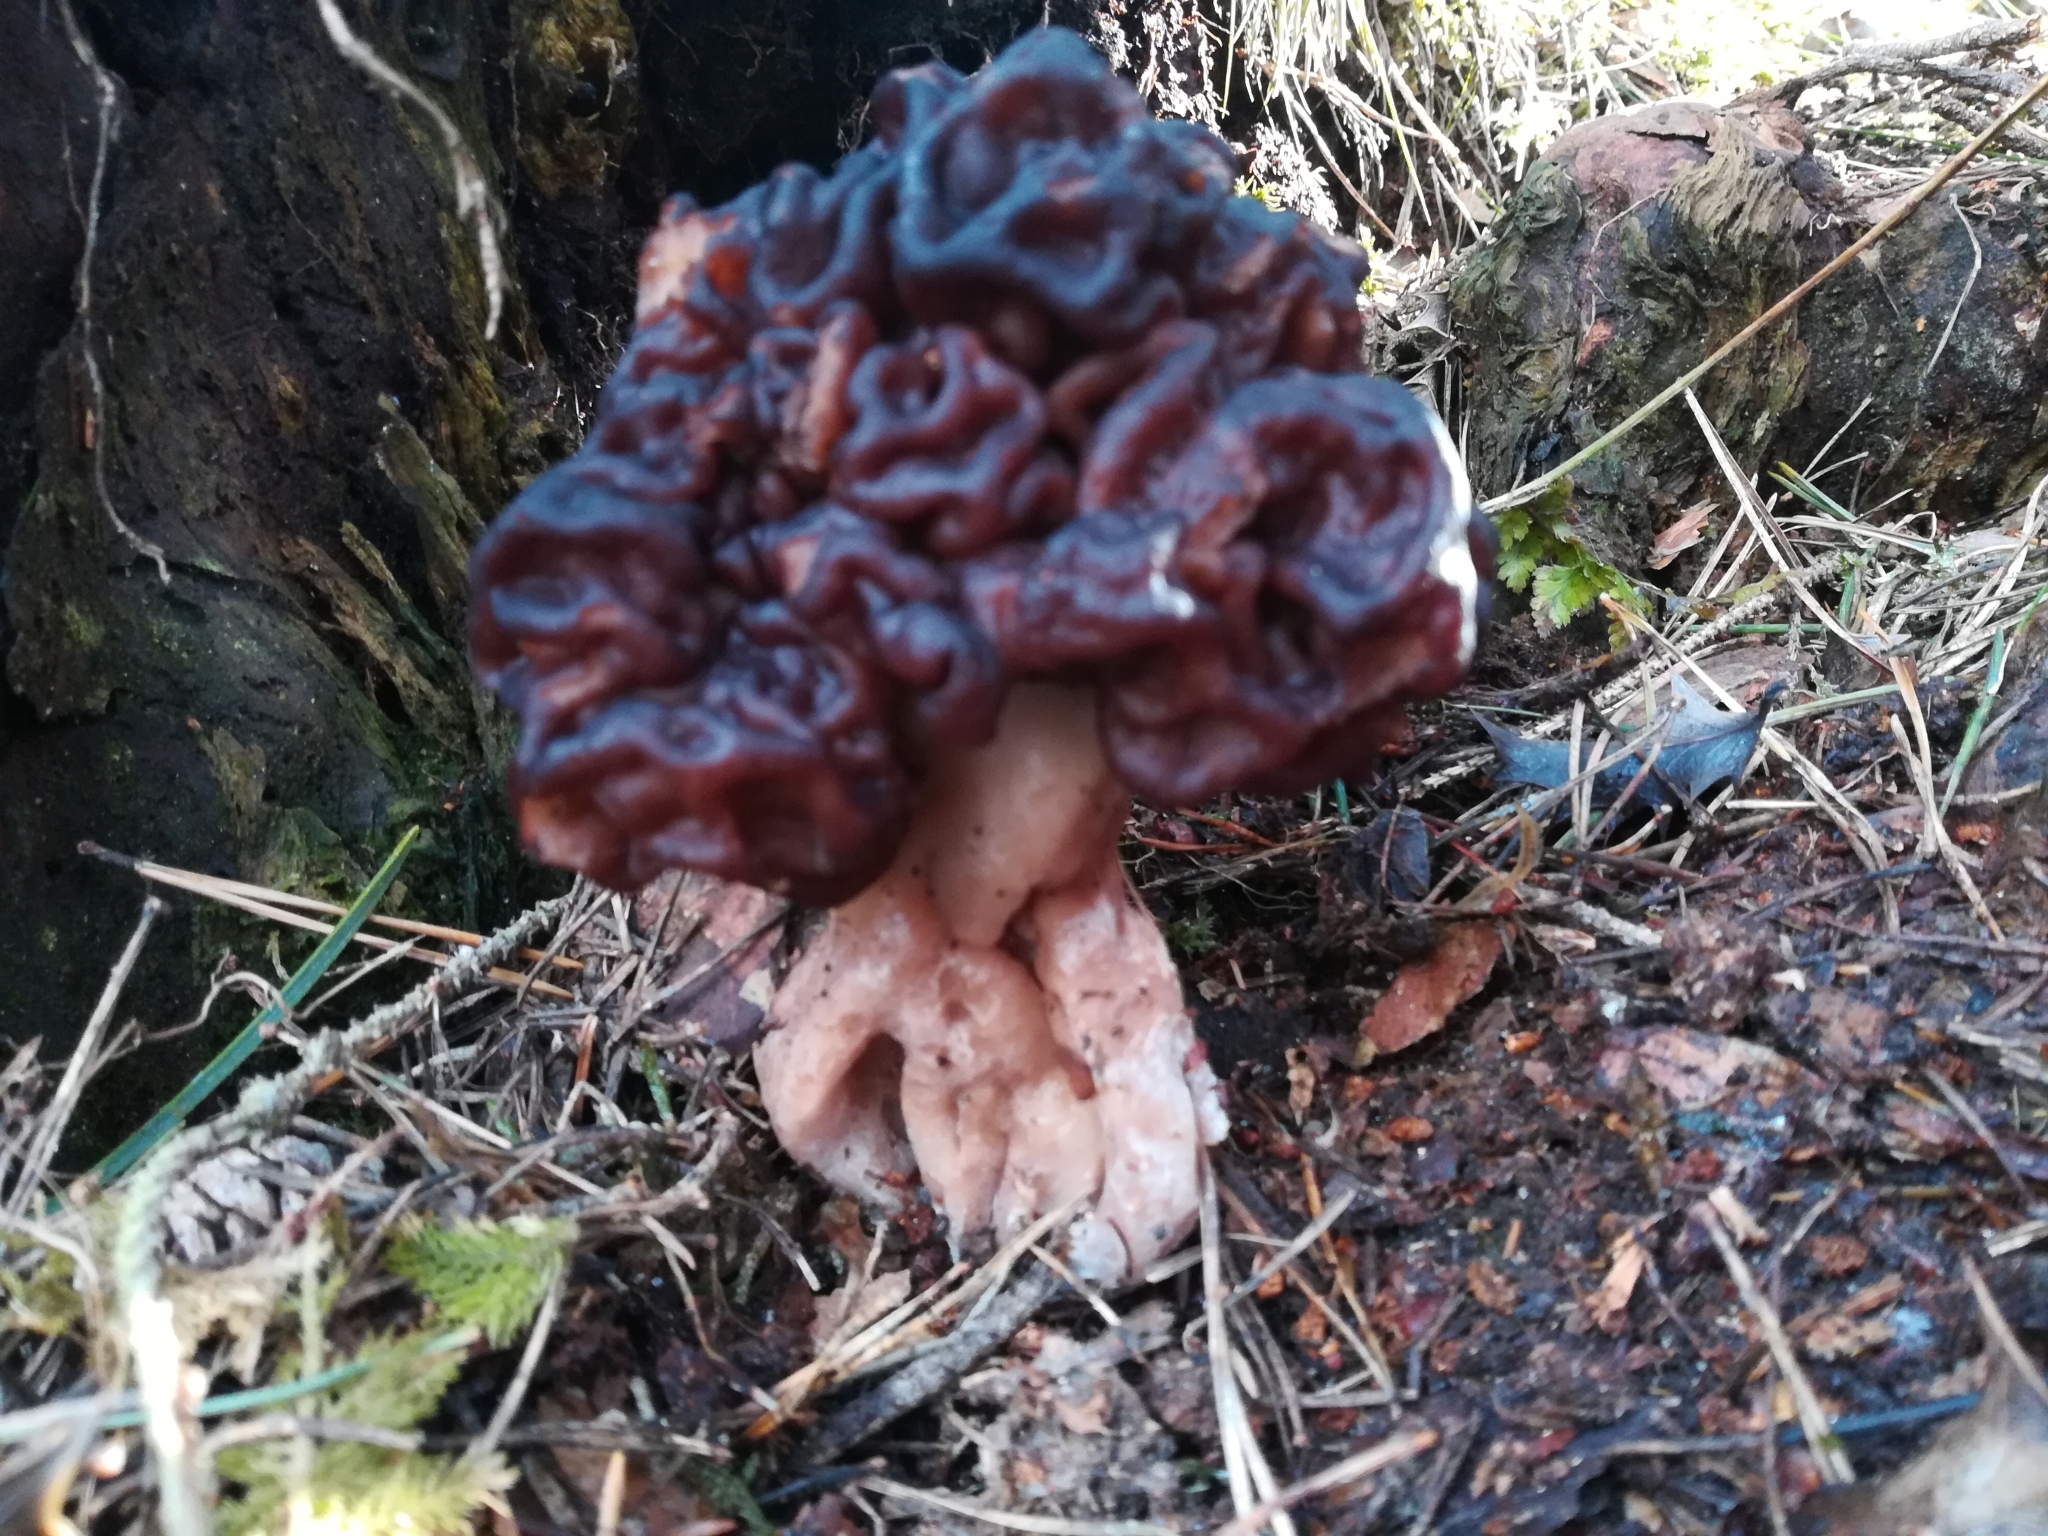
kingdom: Fungi
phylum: Ascomycota
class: Pezizomycetes
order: Pezizales
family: Discinaceae
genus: Gyromitra
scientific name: Gyromitra esculenta
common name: False morel
